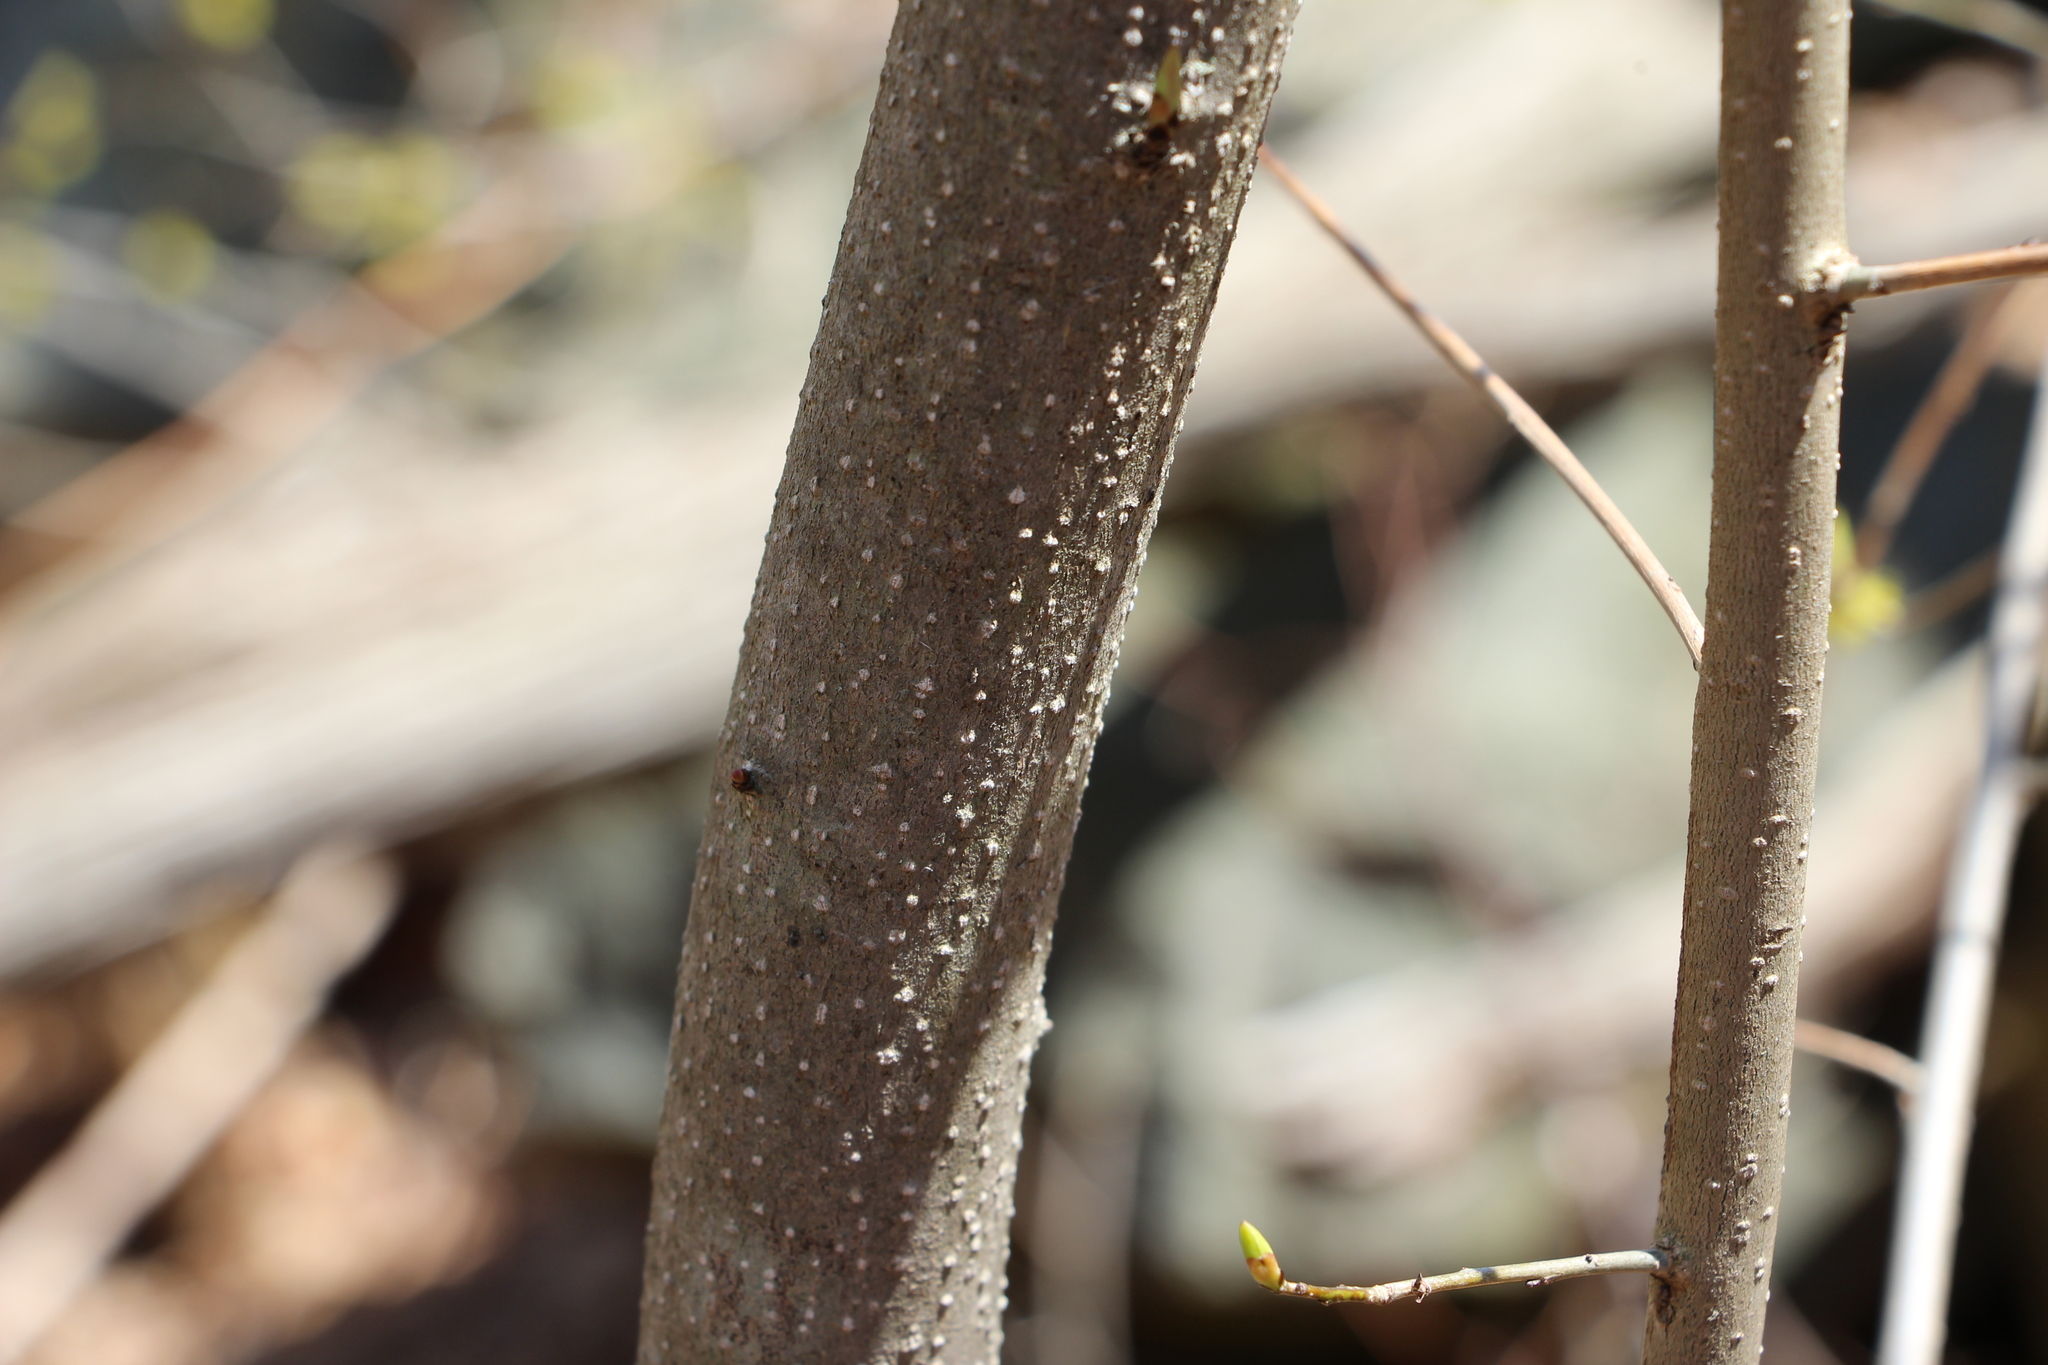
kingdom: Plantae
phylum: Tracheophyta
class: Magnoliopsida
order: Laurales
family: Lauraceae
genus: Lindera
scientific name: Lindera benzoin
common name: Spicebush
